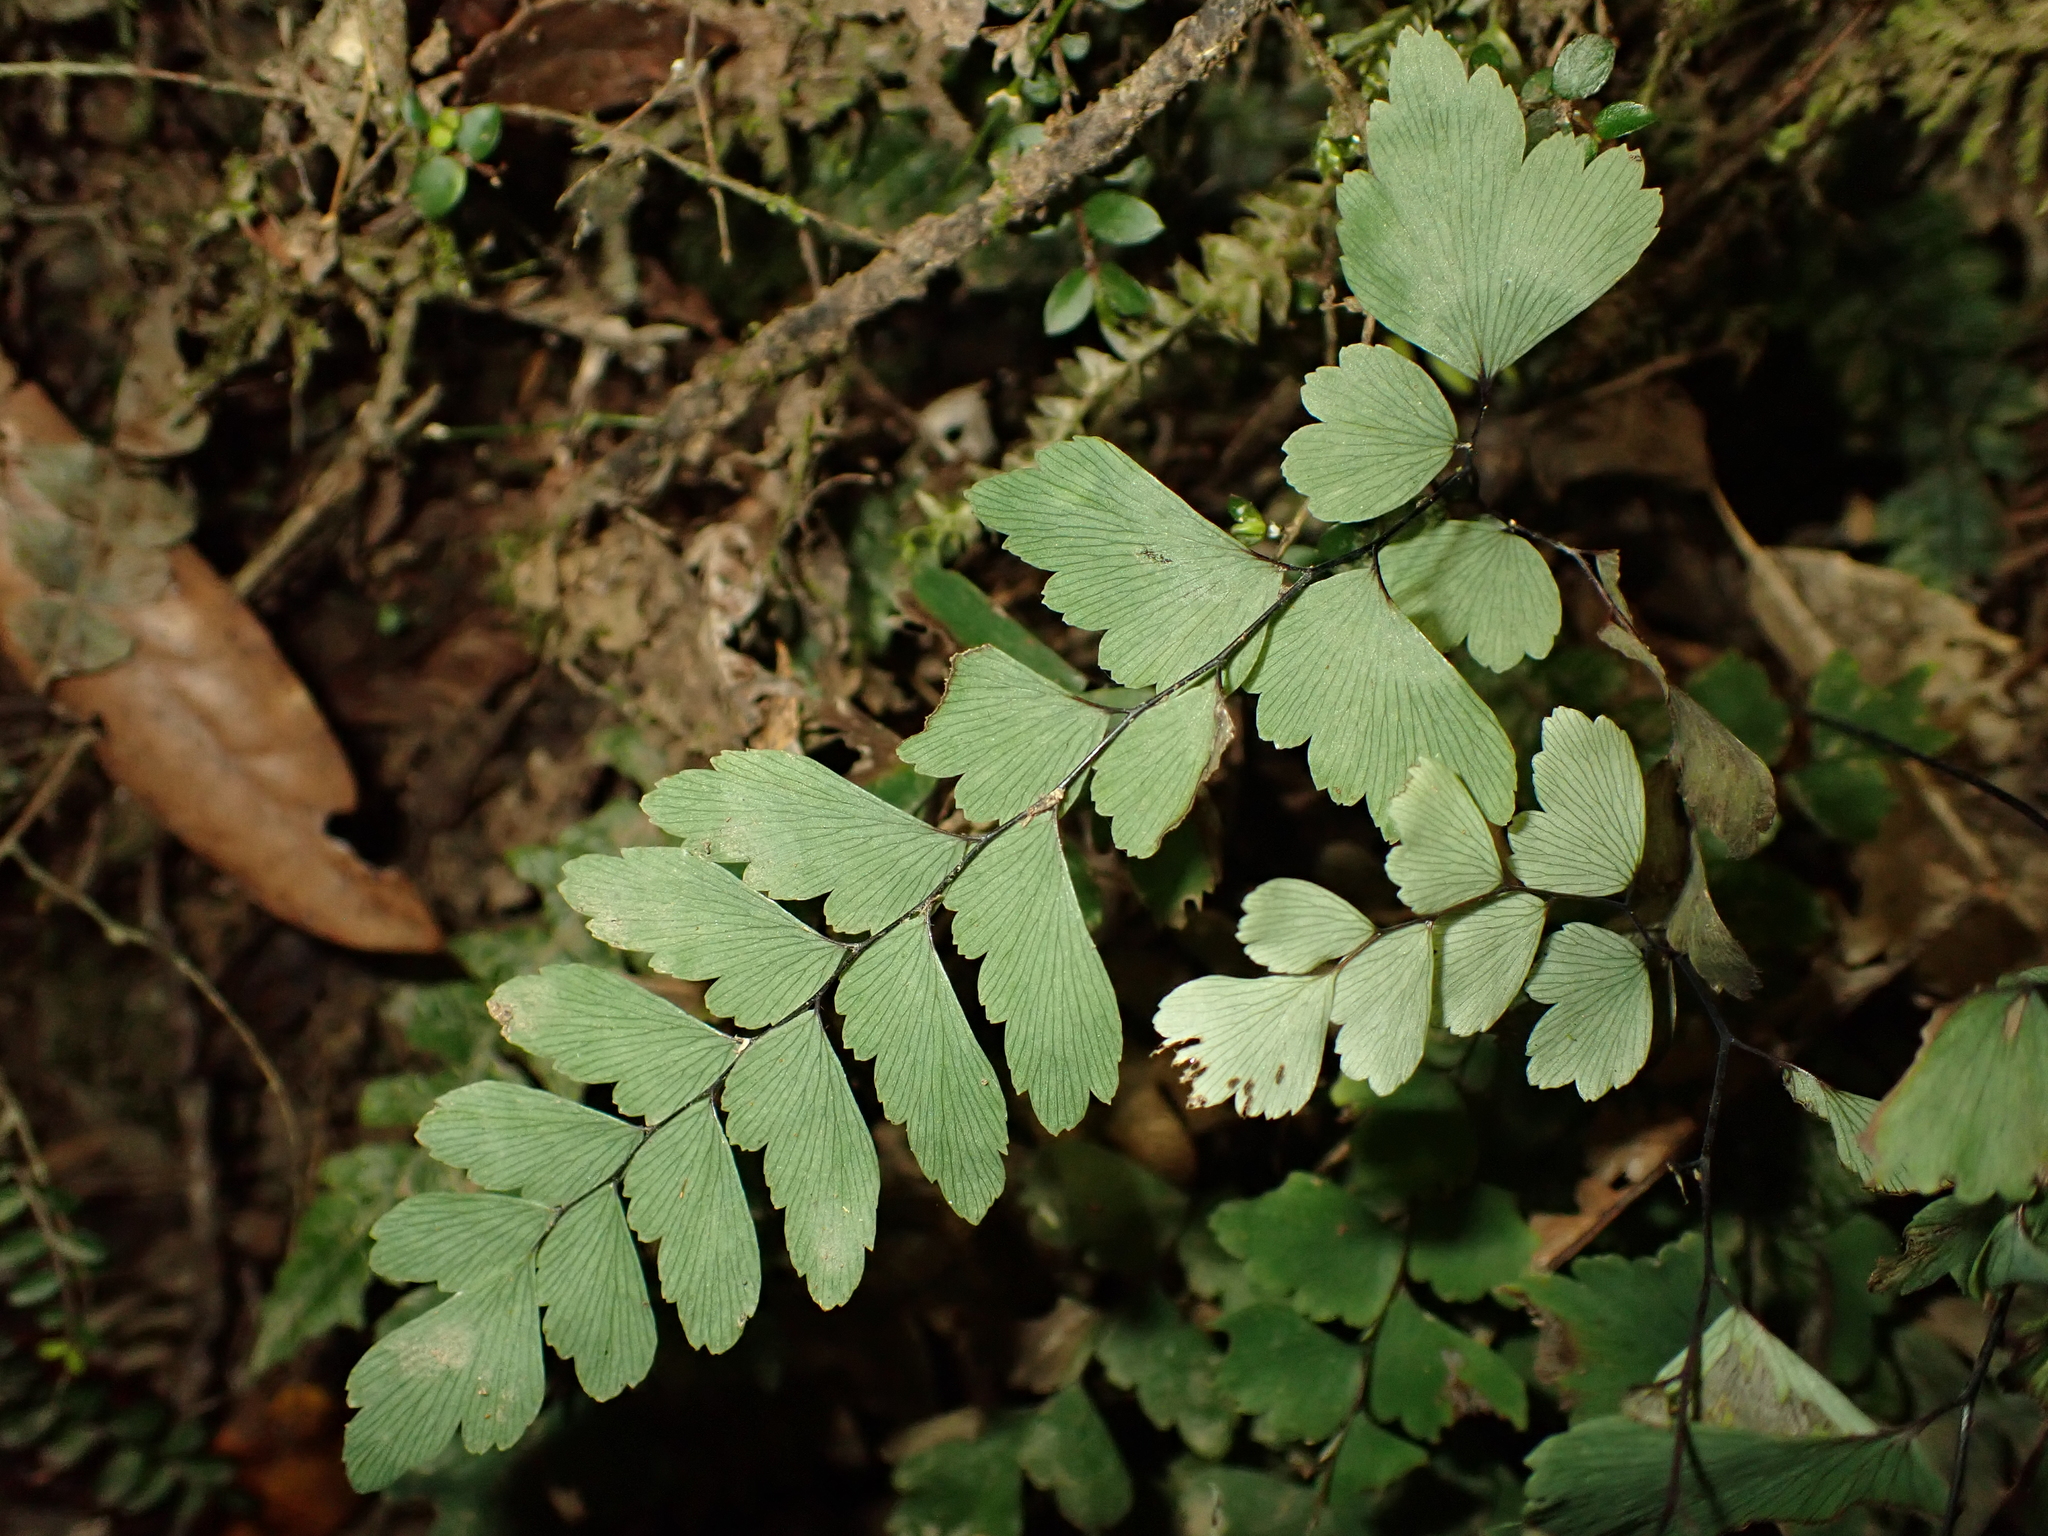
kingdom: Plantae
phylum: Tracheophyta
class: Polypodiopsida
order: Polypodiales
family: Pteridaceae
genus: Adiantum
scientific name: Adiantum cunninghamii
